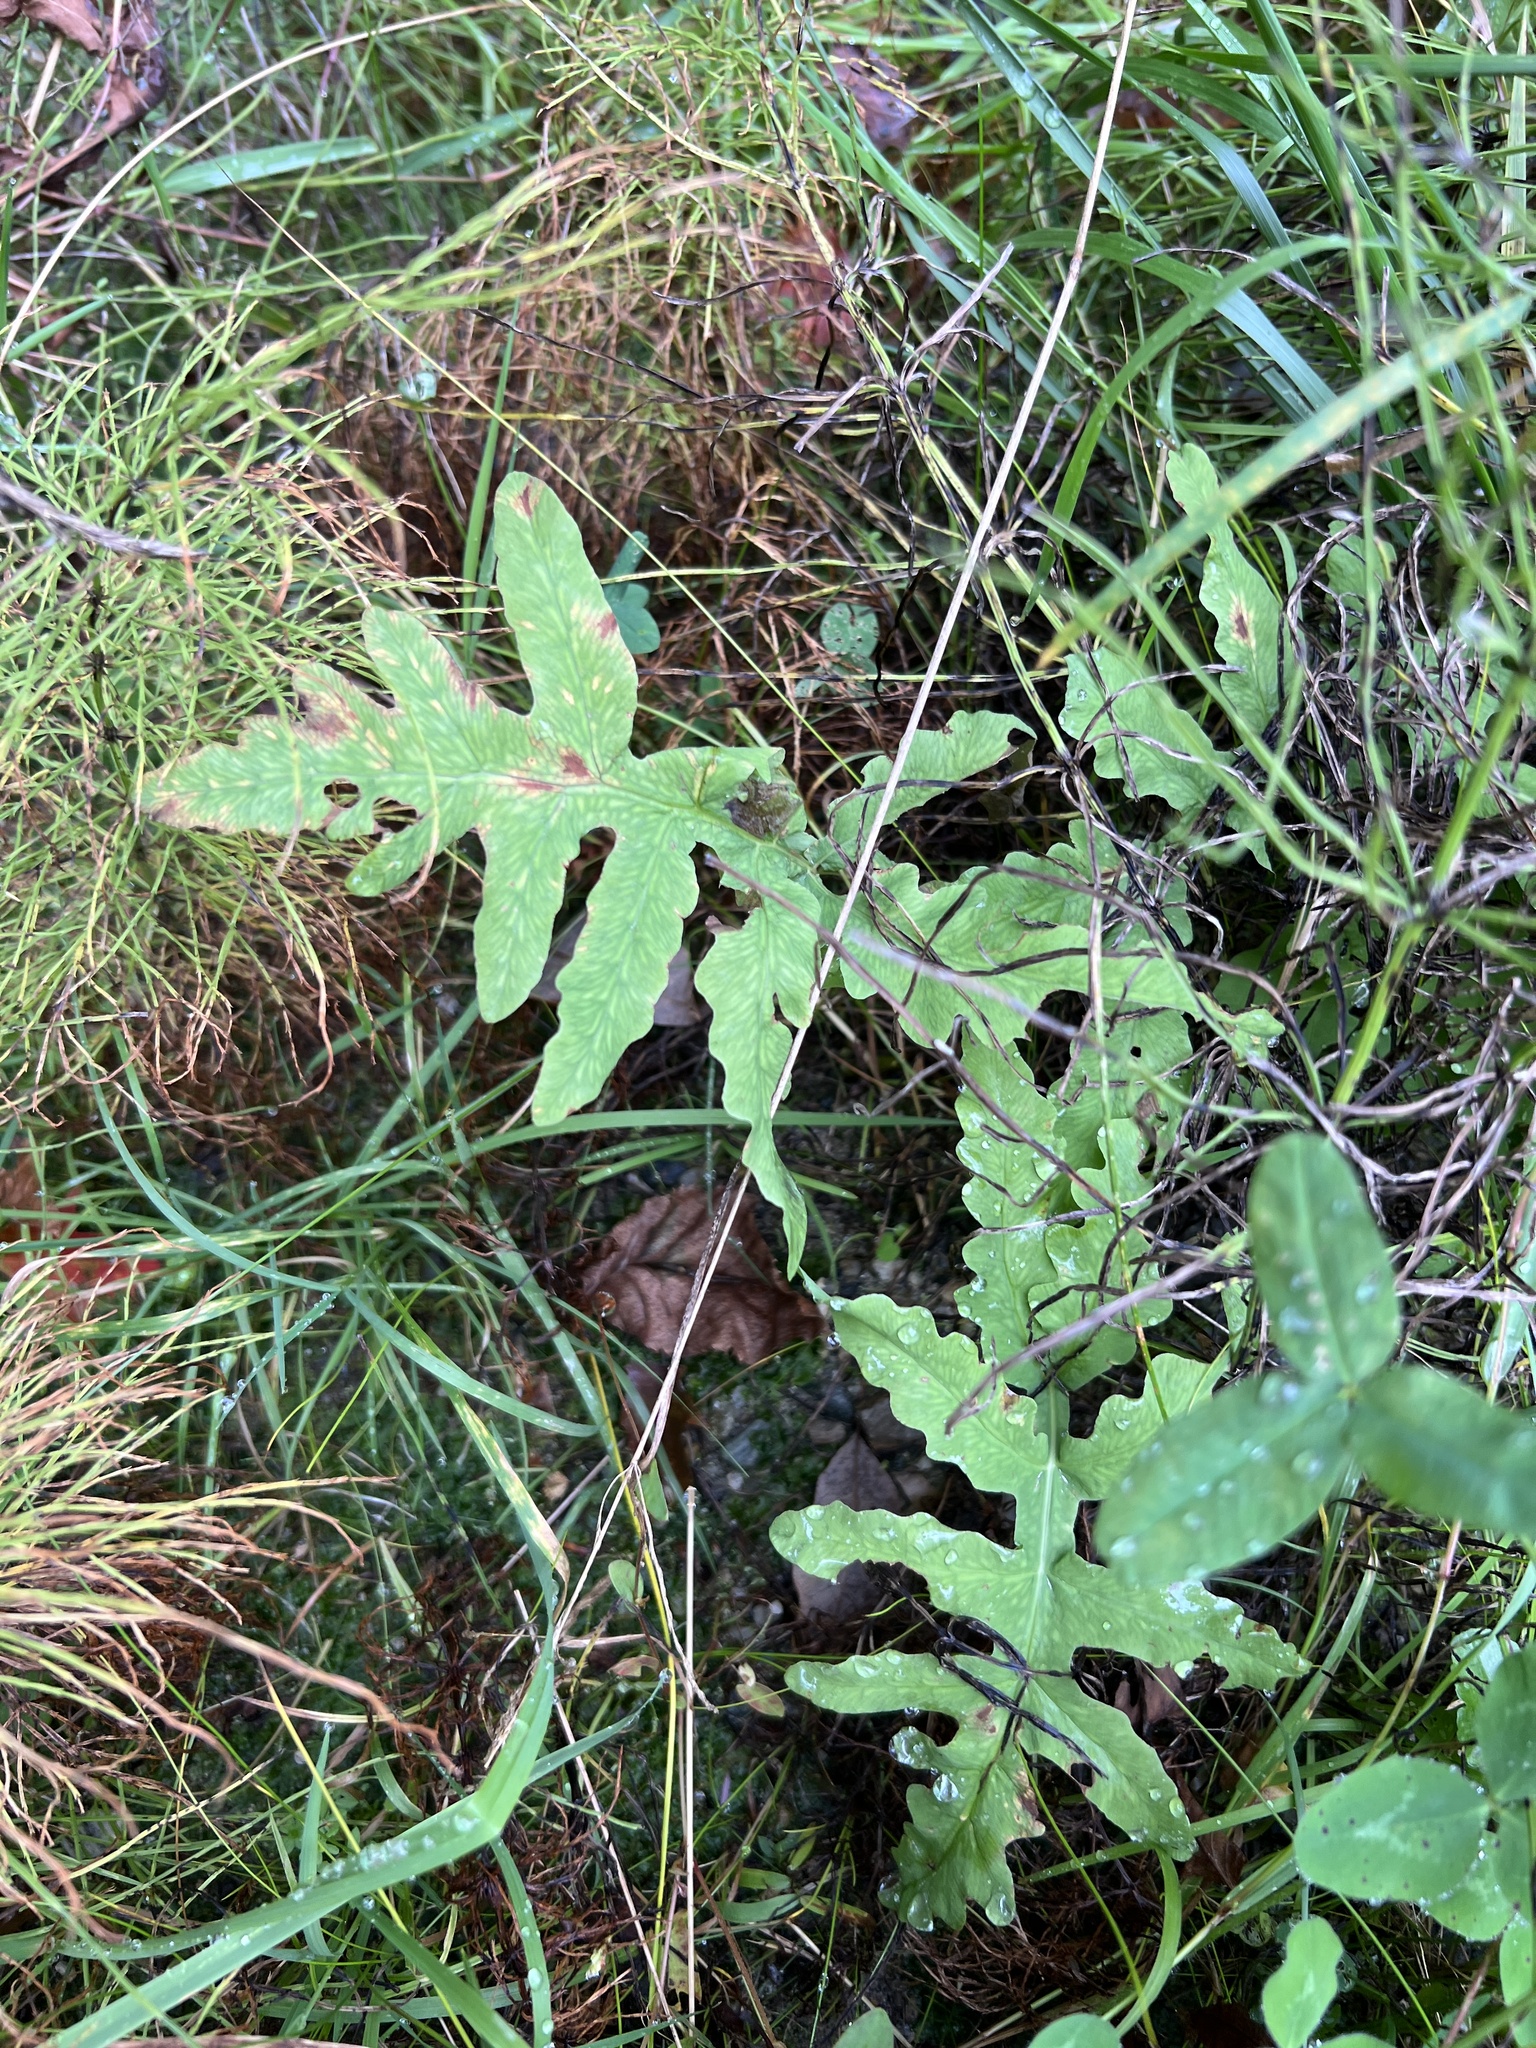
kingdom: Plantae
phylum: Tracheophyta
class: Polypodiopsida
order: Polypodiales
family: Onocleaceae
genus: Onoclea
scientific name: Onoclea sensibilis
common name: Sensitive fern
